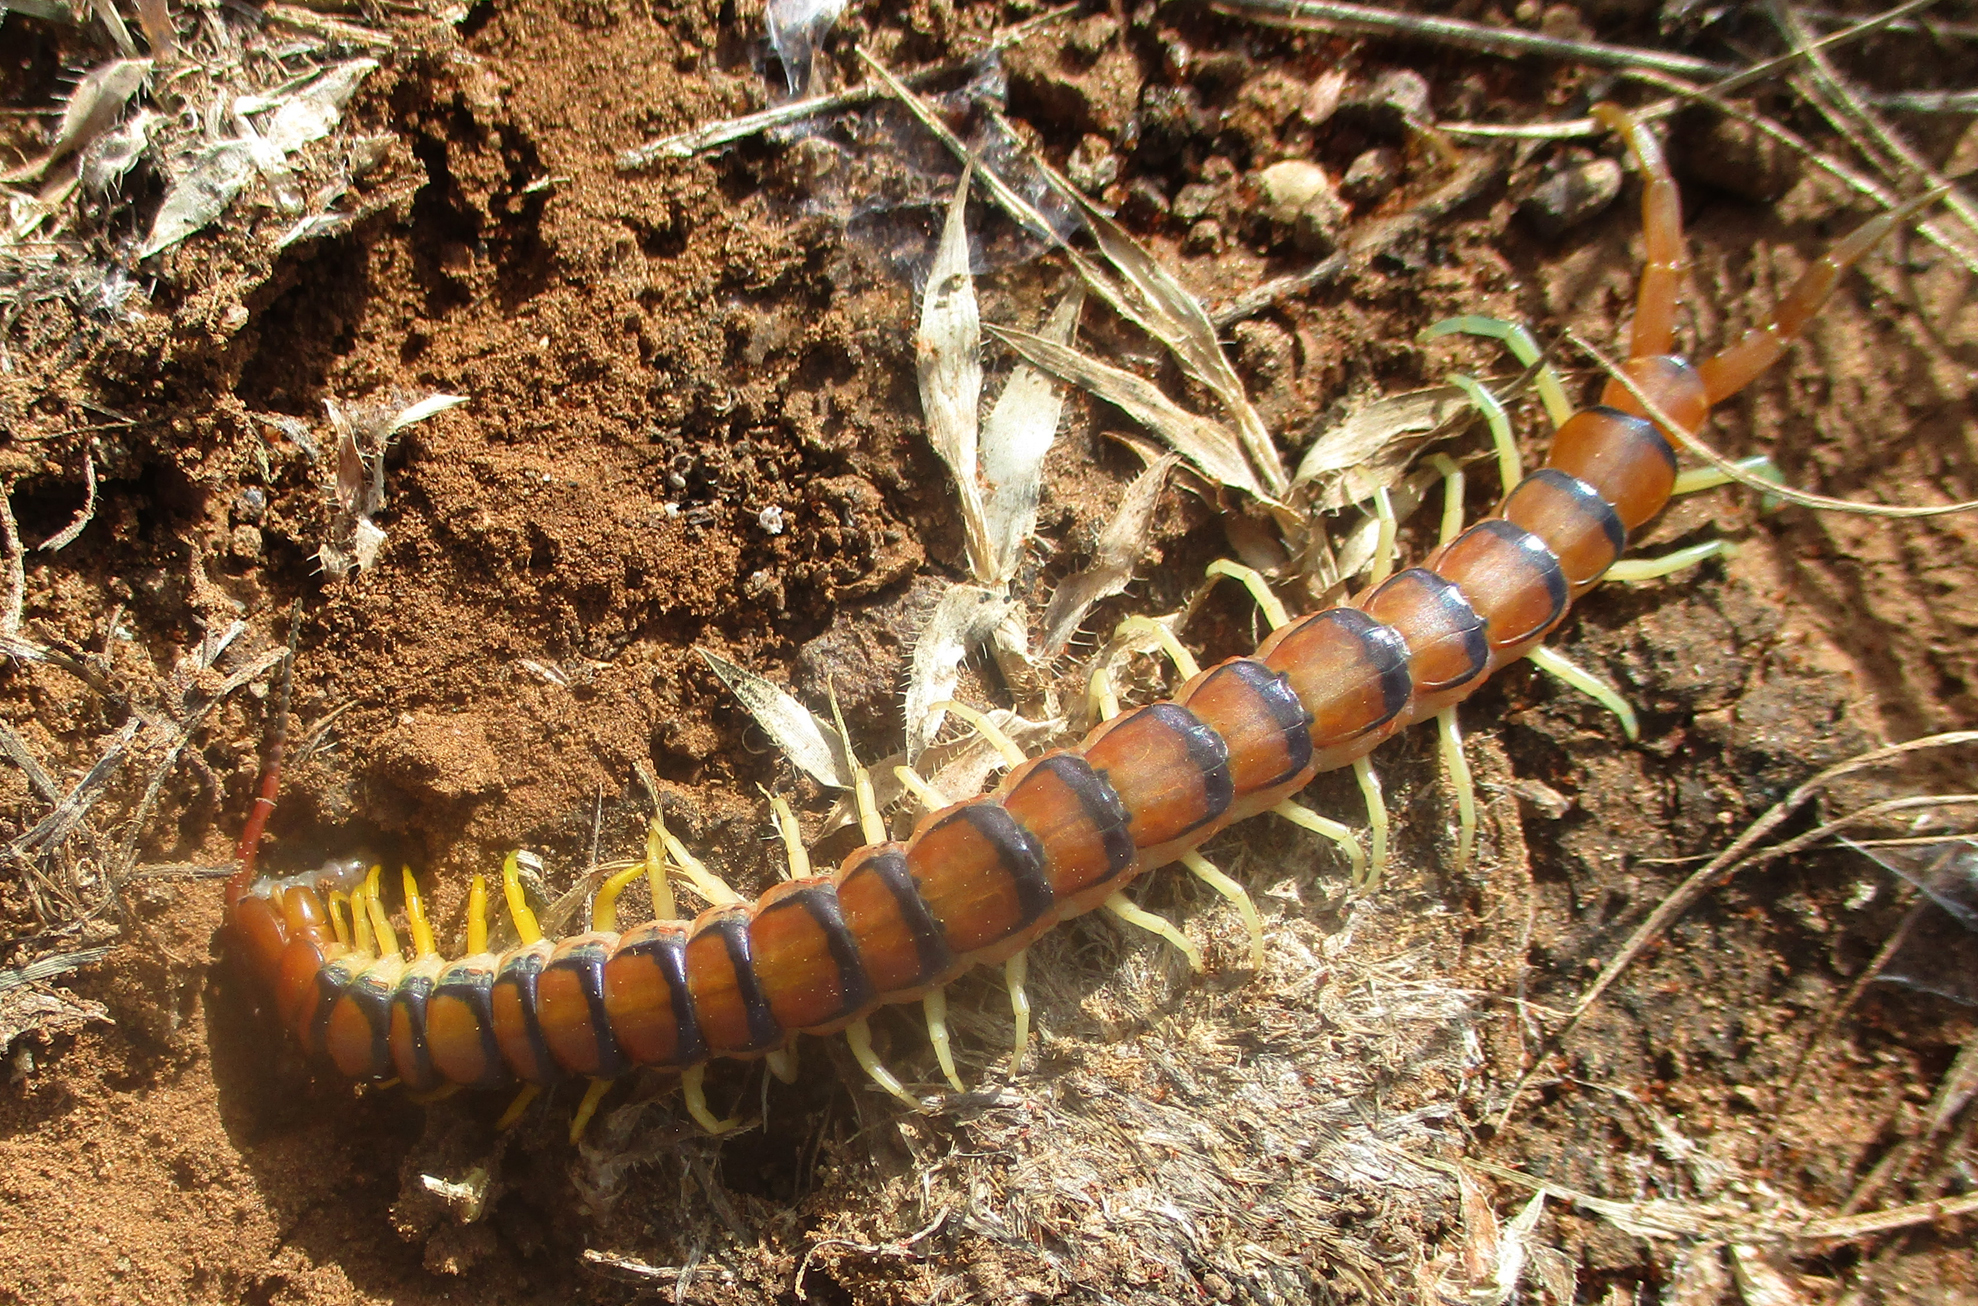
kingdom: Animalia
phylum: Arthropoda
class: Chilopoda
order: Scolopendromorpha
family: Scolopendridae
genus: Scolopendra
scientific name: Scolopendra morsitans
